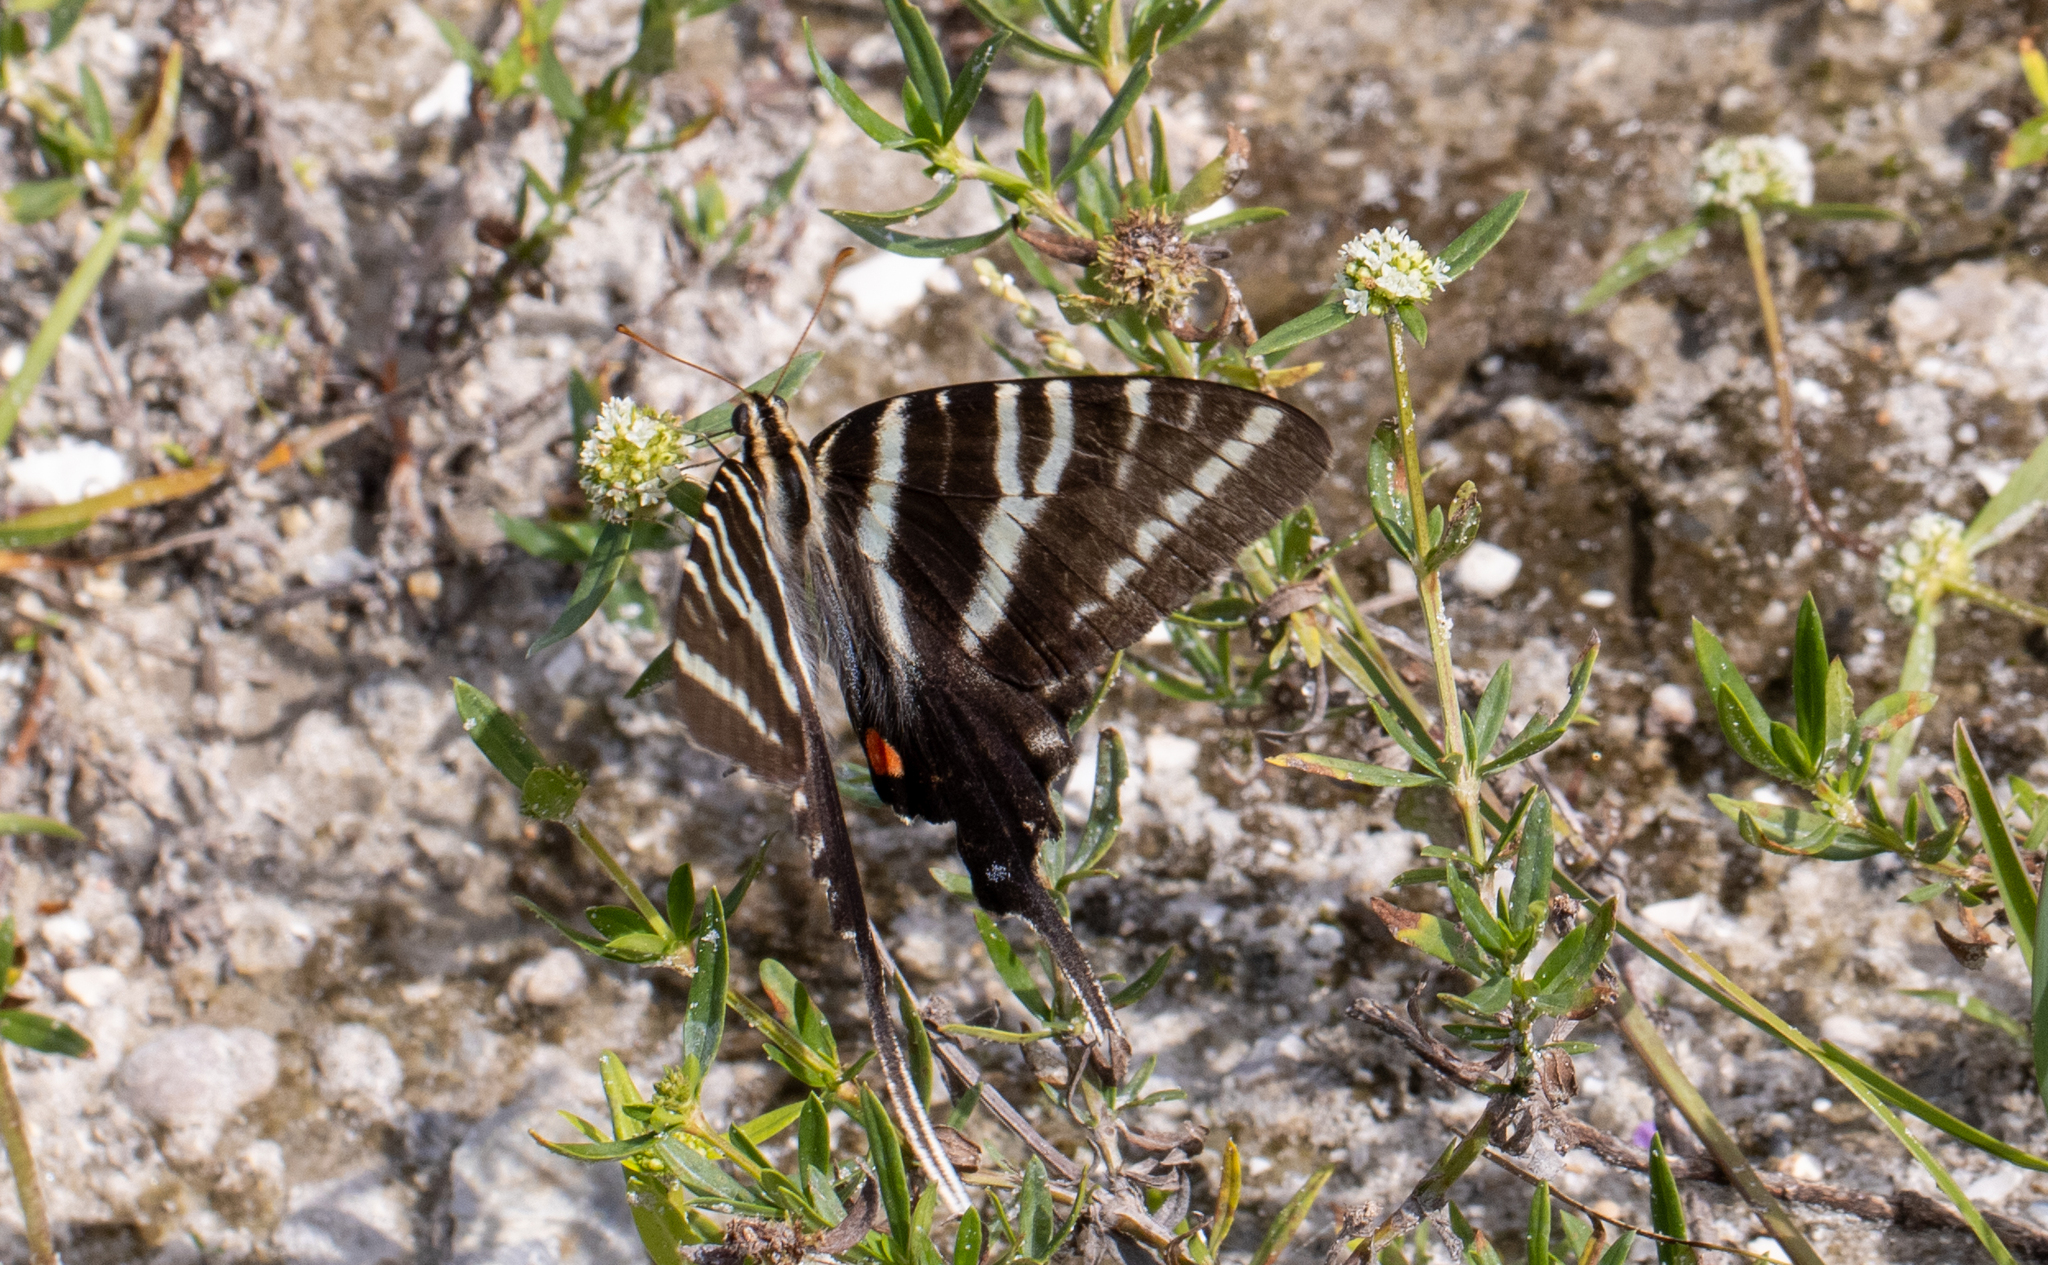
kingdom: Animalia
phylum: Arthropoda
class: Insecta
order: Lepidoptera
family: Papilionidae
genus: Protographium
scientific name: Protographium marcellus
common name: Zebra swallowtail
